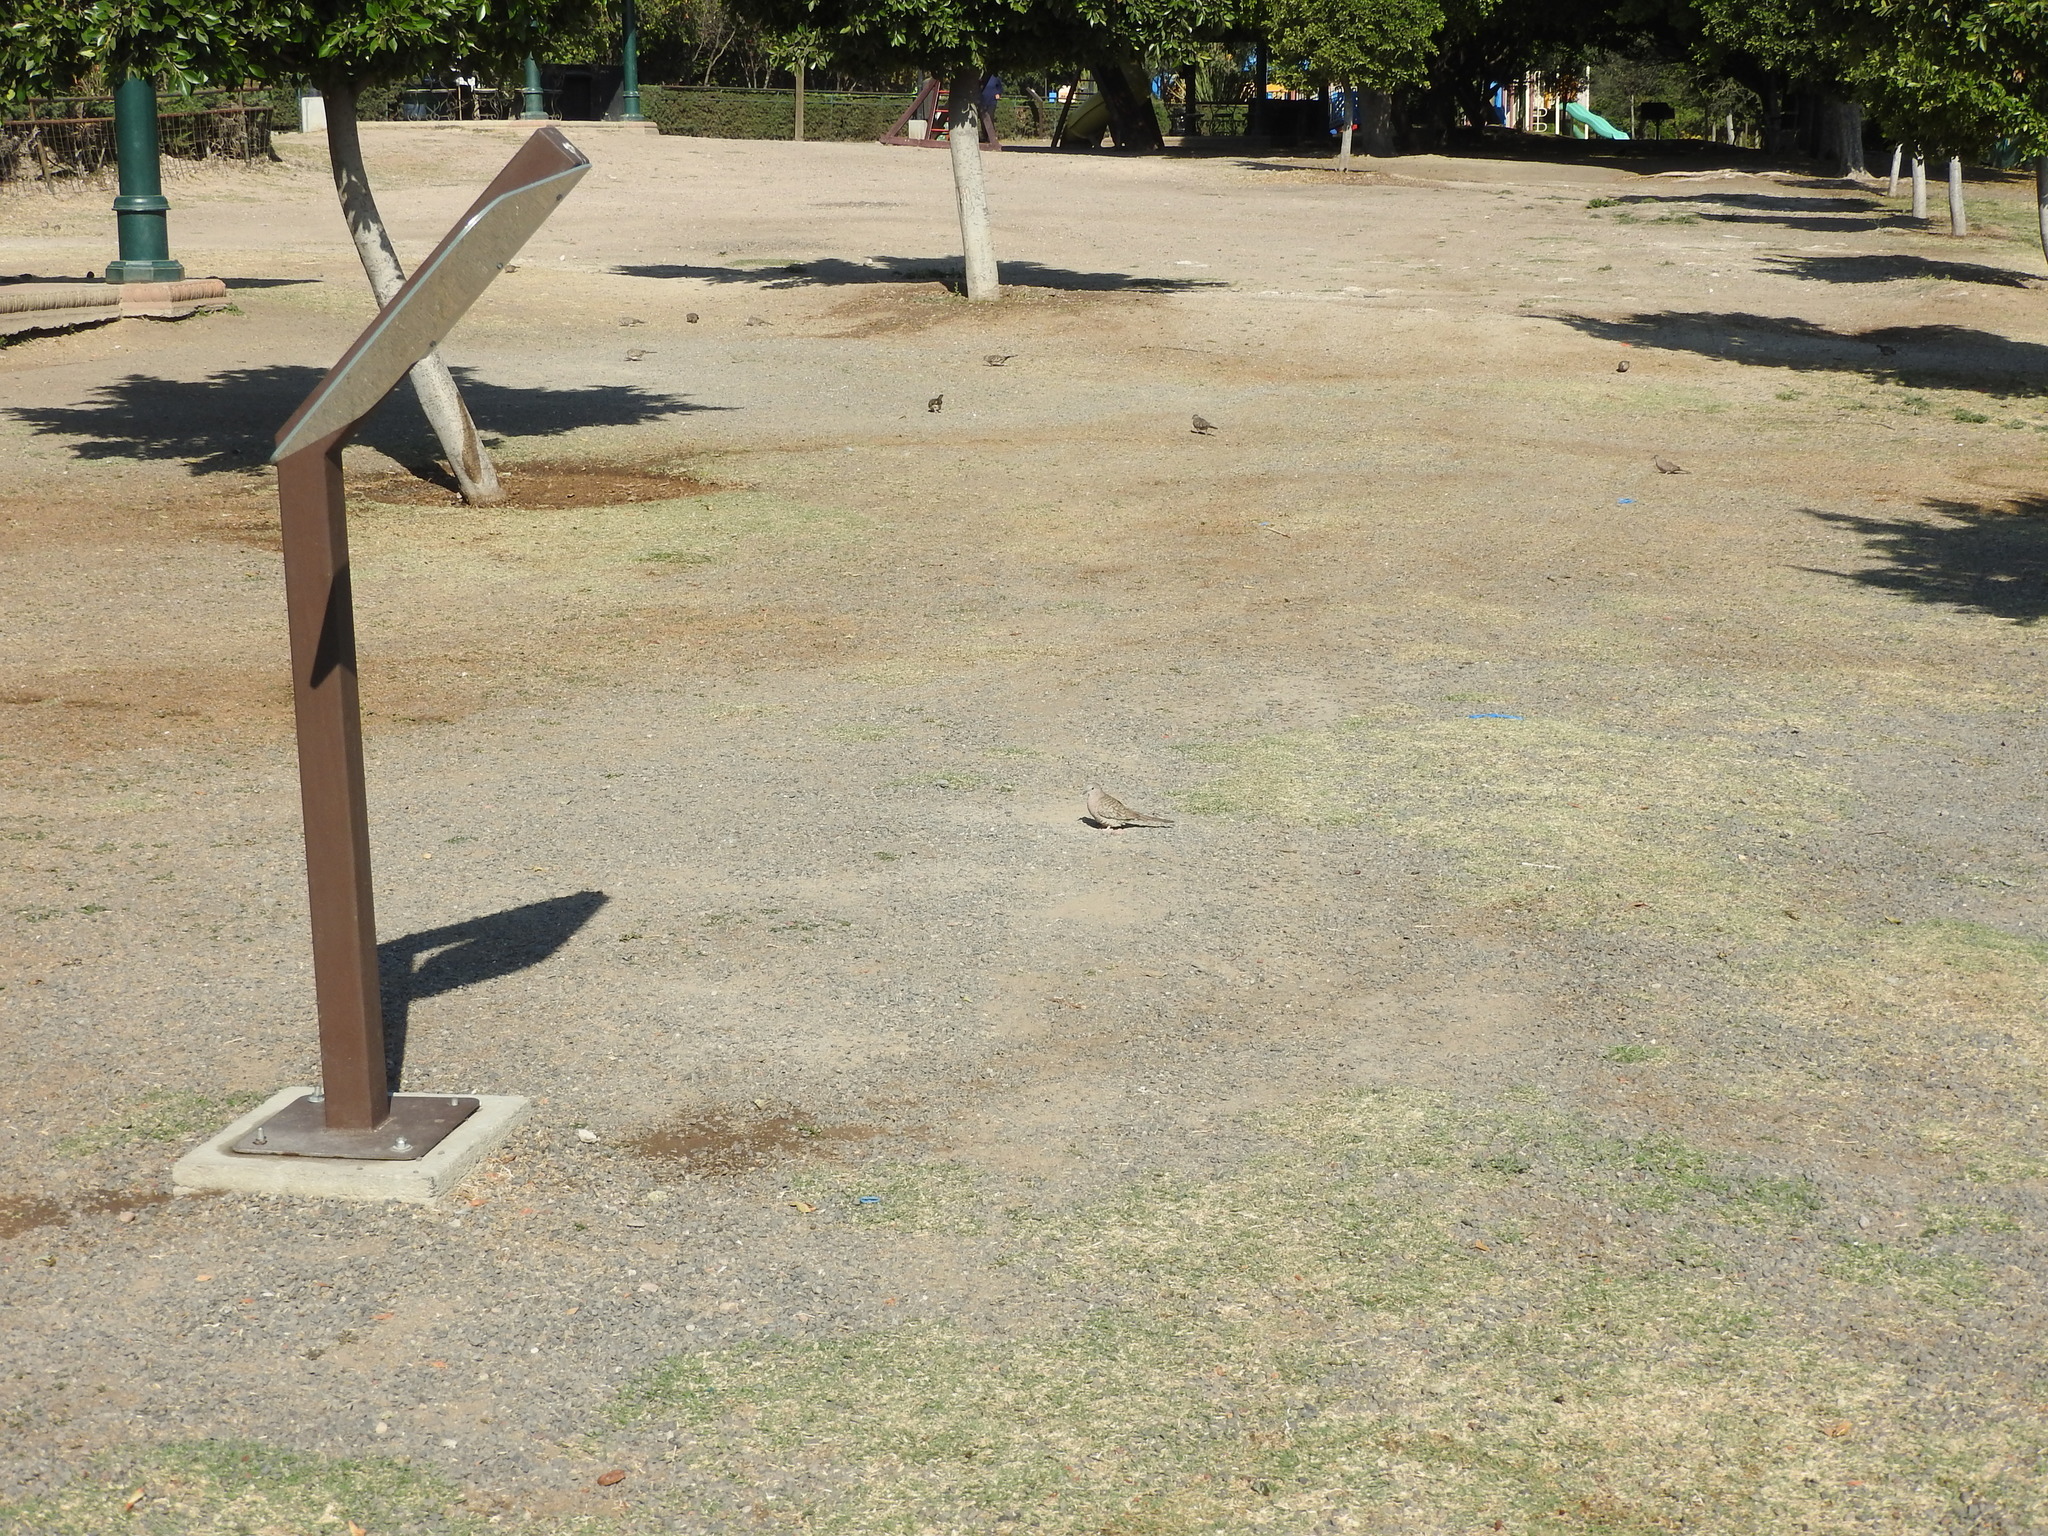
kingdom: Animalia
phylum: Chordata
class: Aves
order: Columbiformes
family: Columbidae
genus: Columbina
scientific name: Columbina inca
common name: Inca dove
